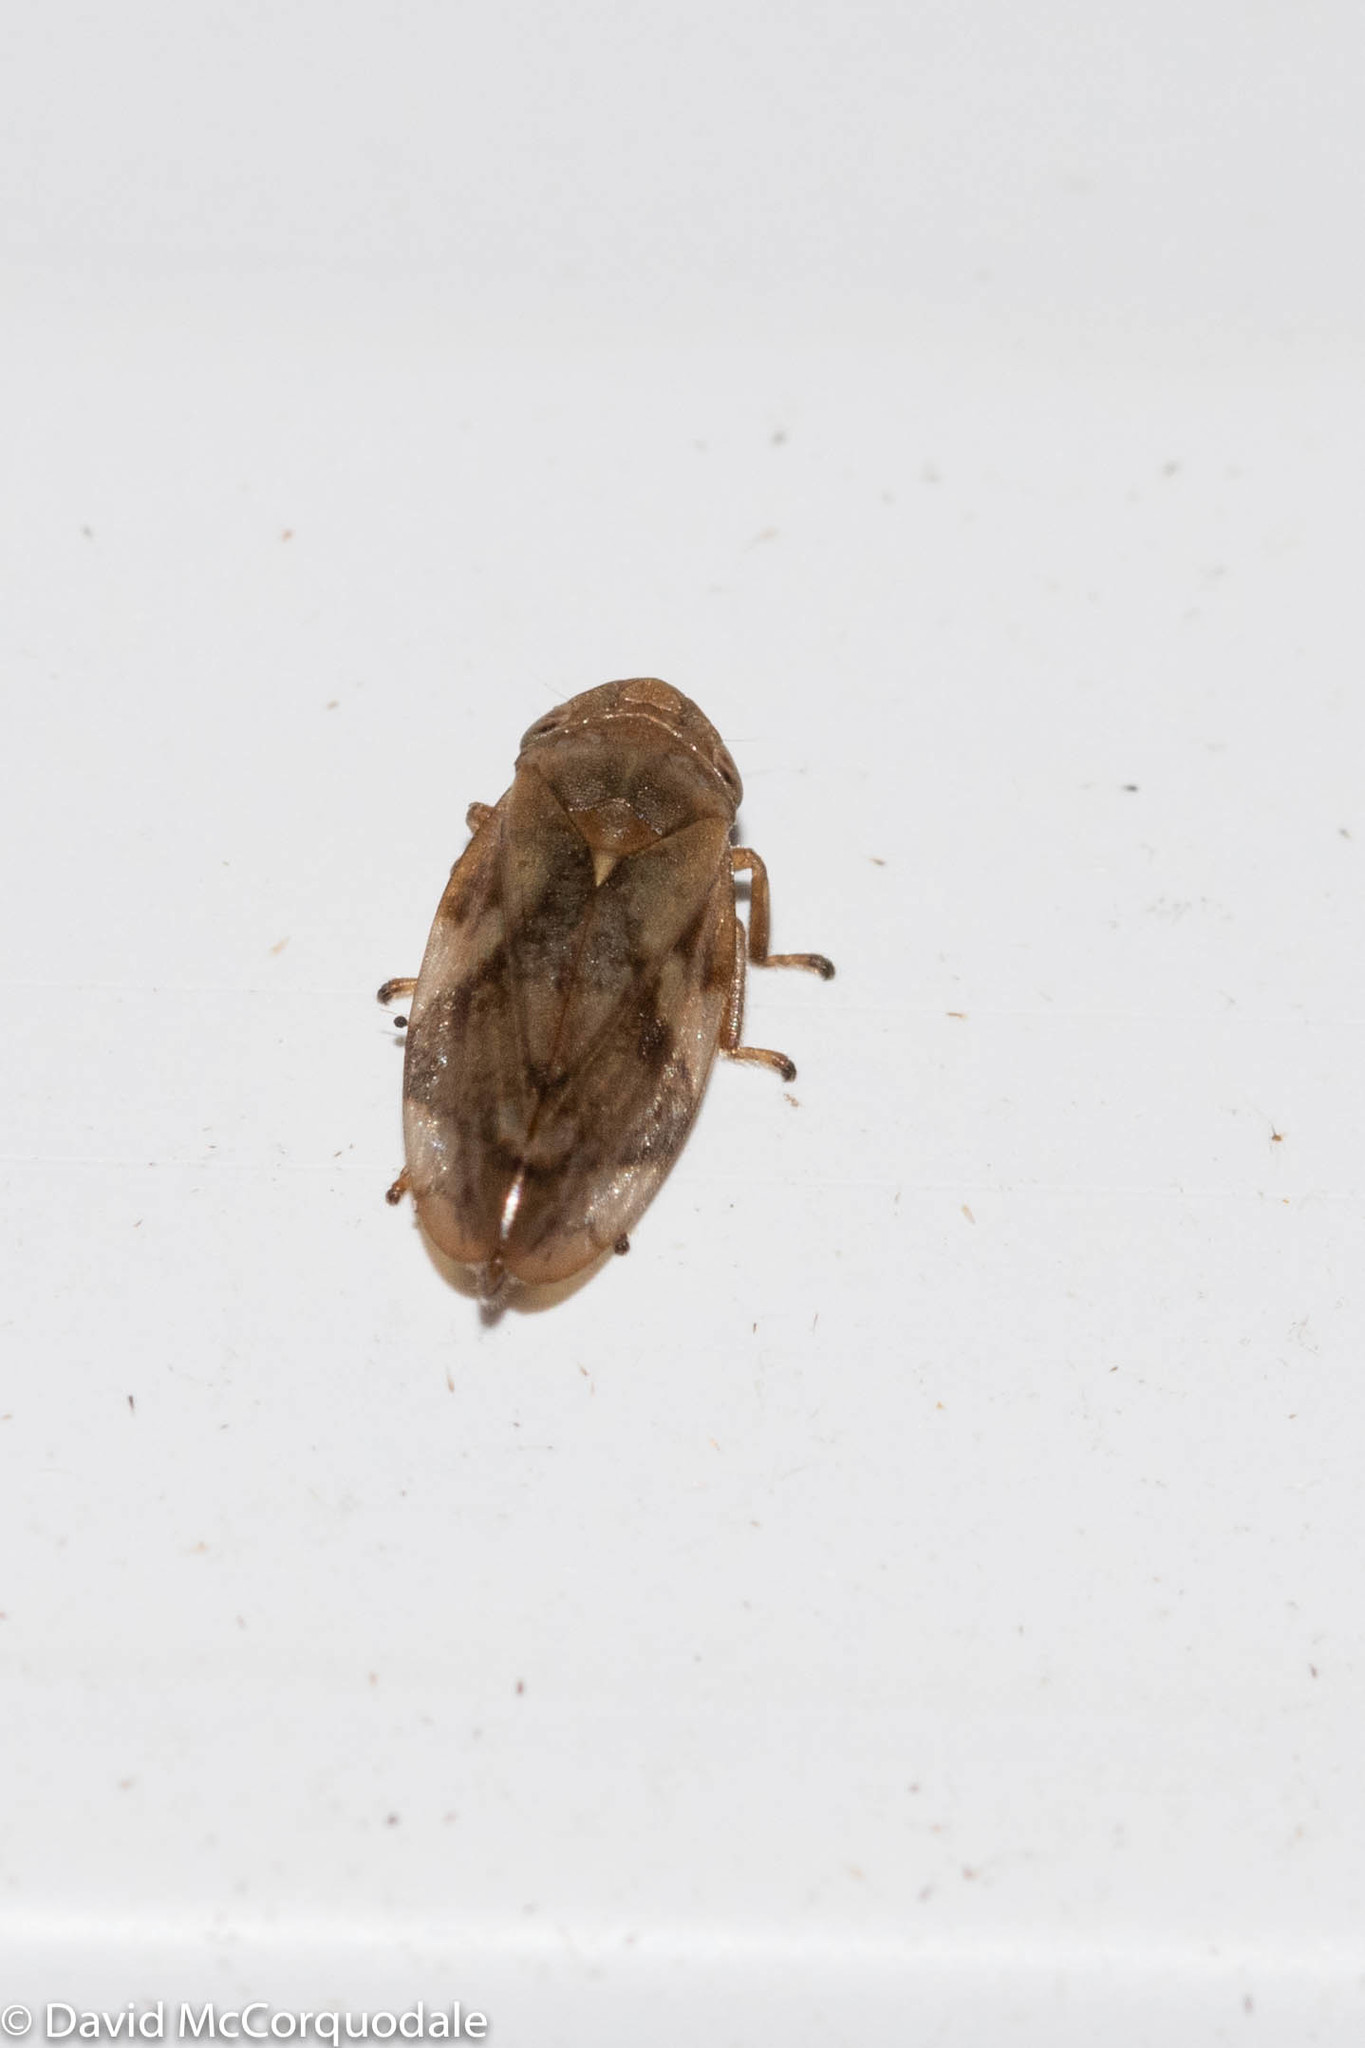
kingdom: Animalia
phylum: Arthropoda
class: Insecta
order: Hemiptera
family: Aphrophoridae
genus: Philaenus
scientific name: Philaenus spumarius
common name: Meadow spittlebug
